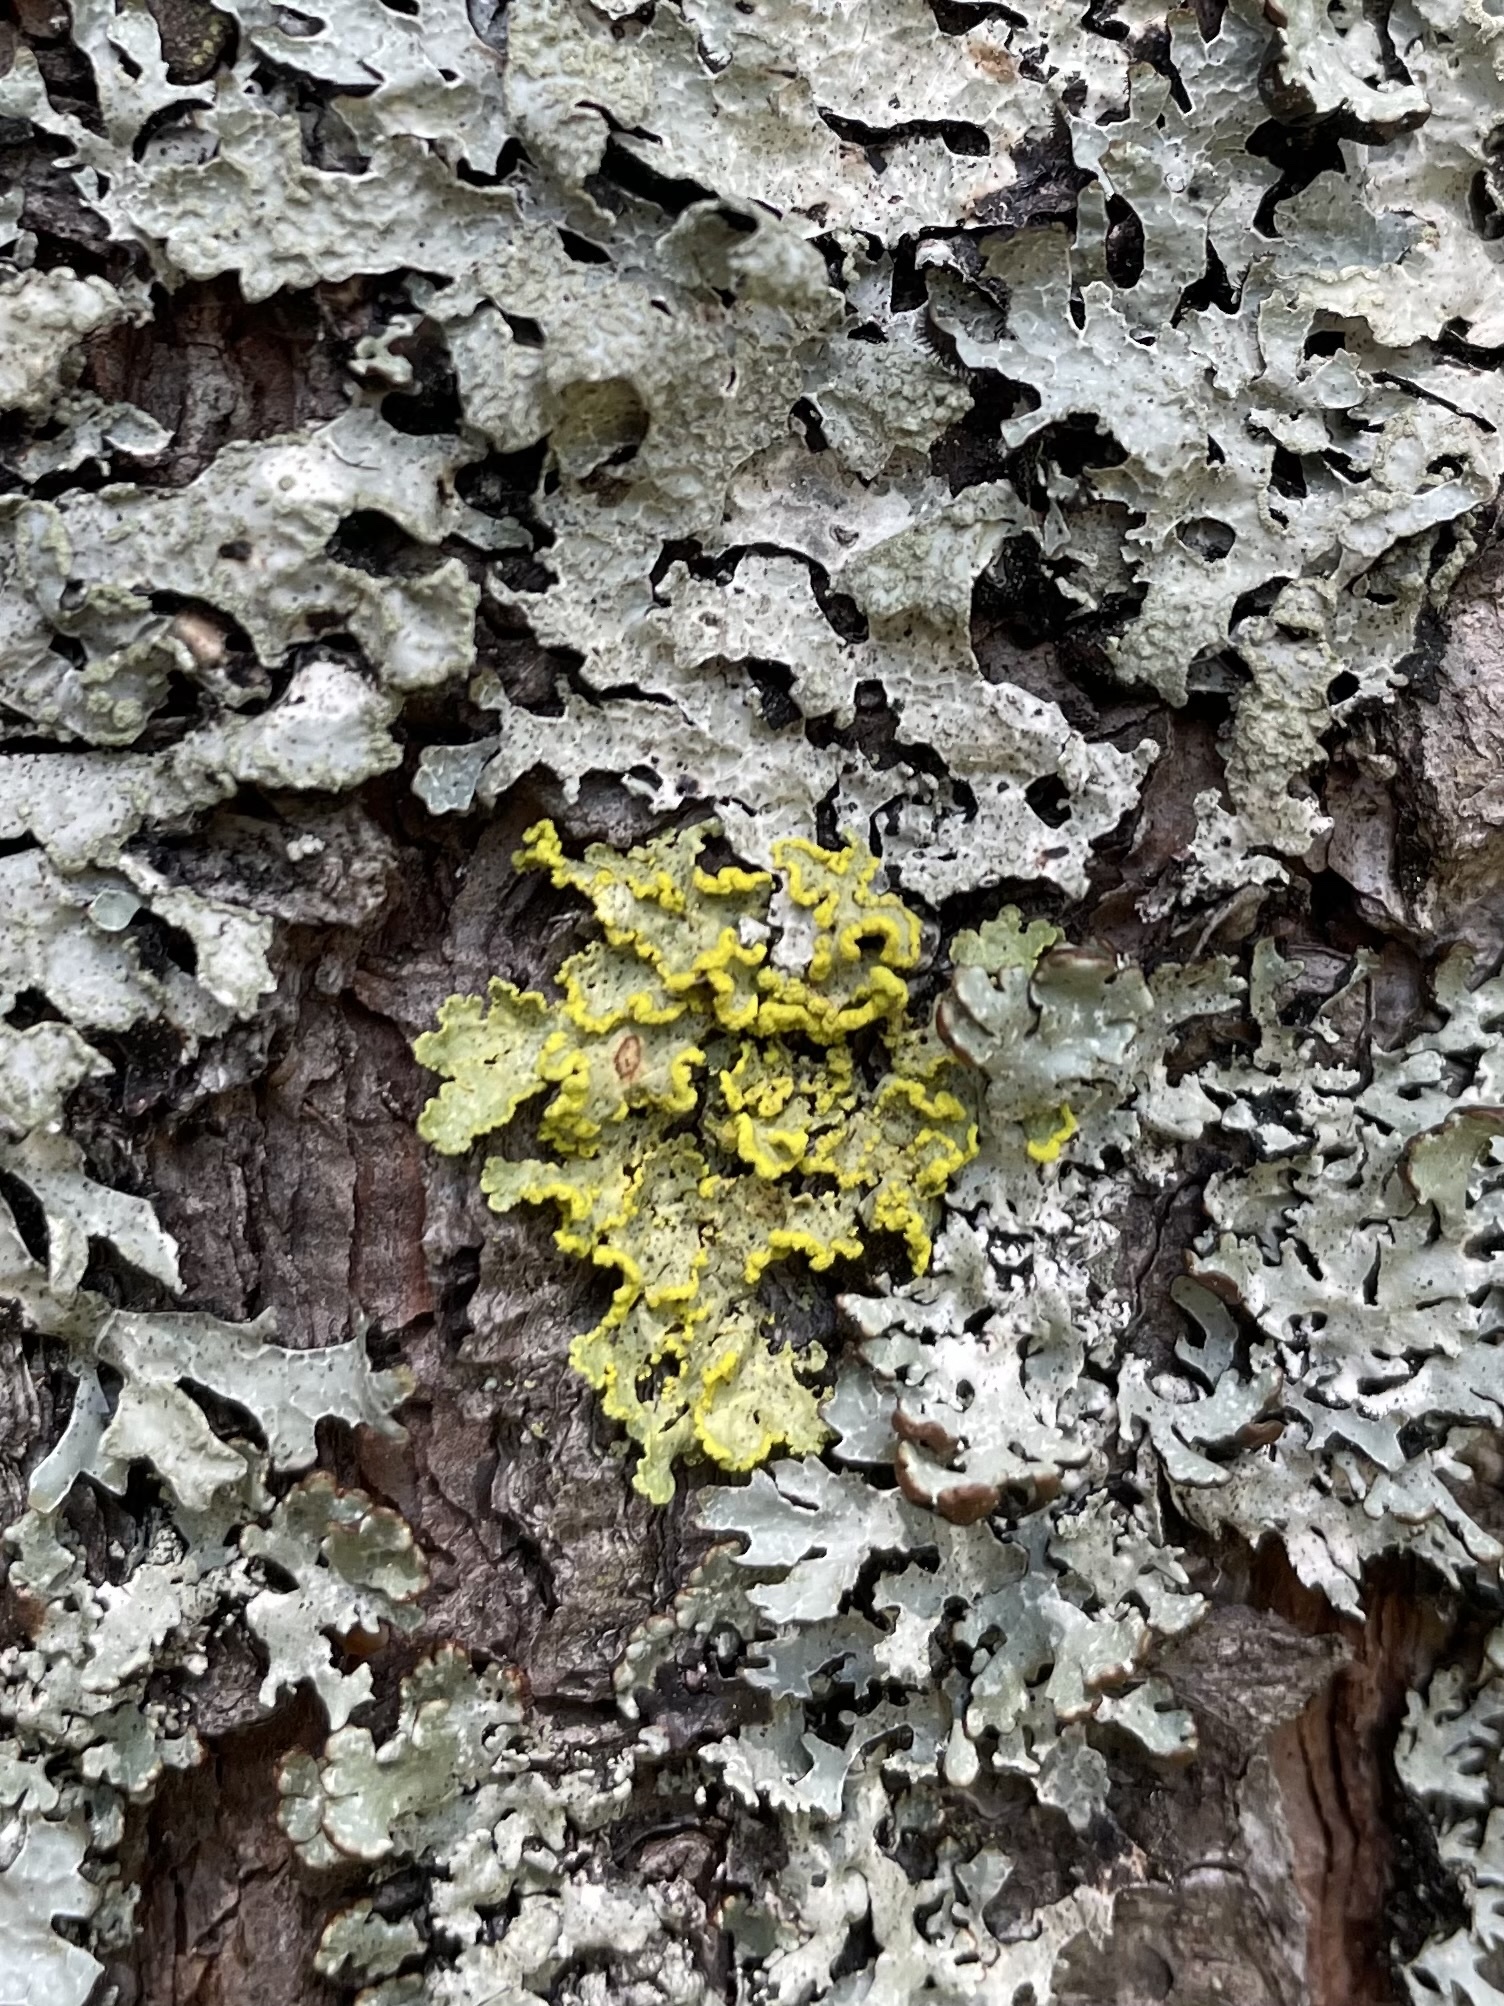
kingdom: Fungi
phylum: Ascomycota
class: Lecanoromycetes
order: Lecanorales
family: Parmeliaceae
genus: Vulpicida
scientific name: Vulpicida pinastri
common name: Powdered sunshine lichen
